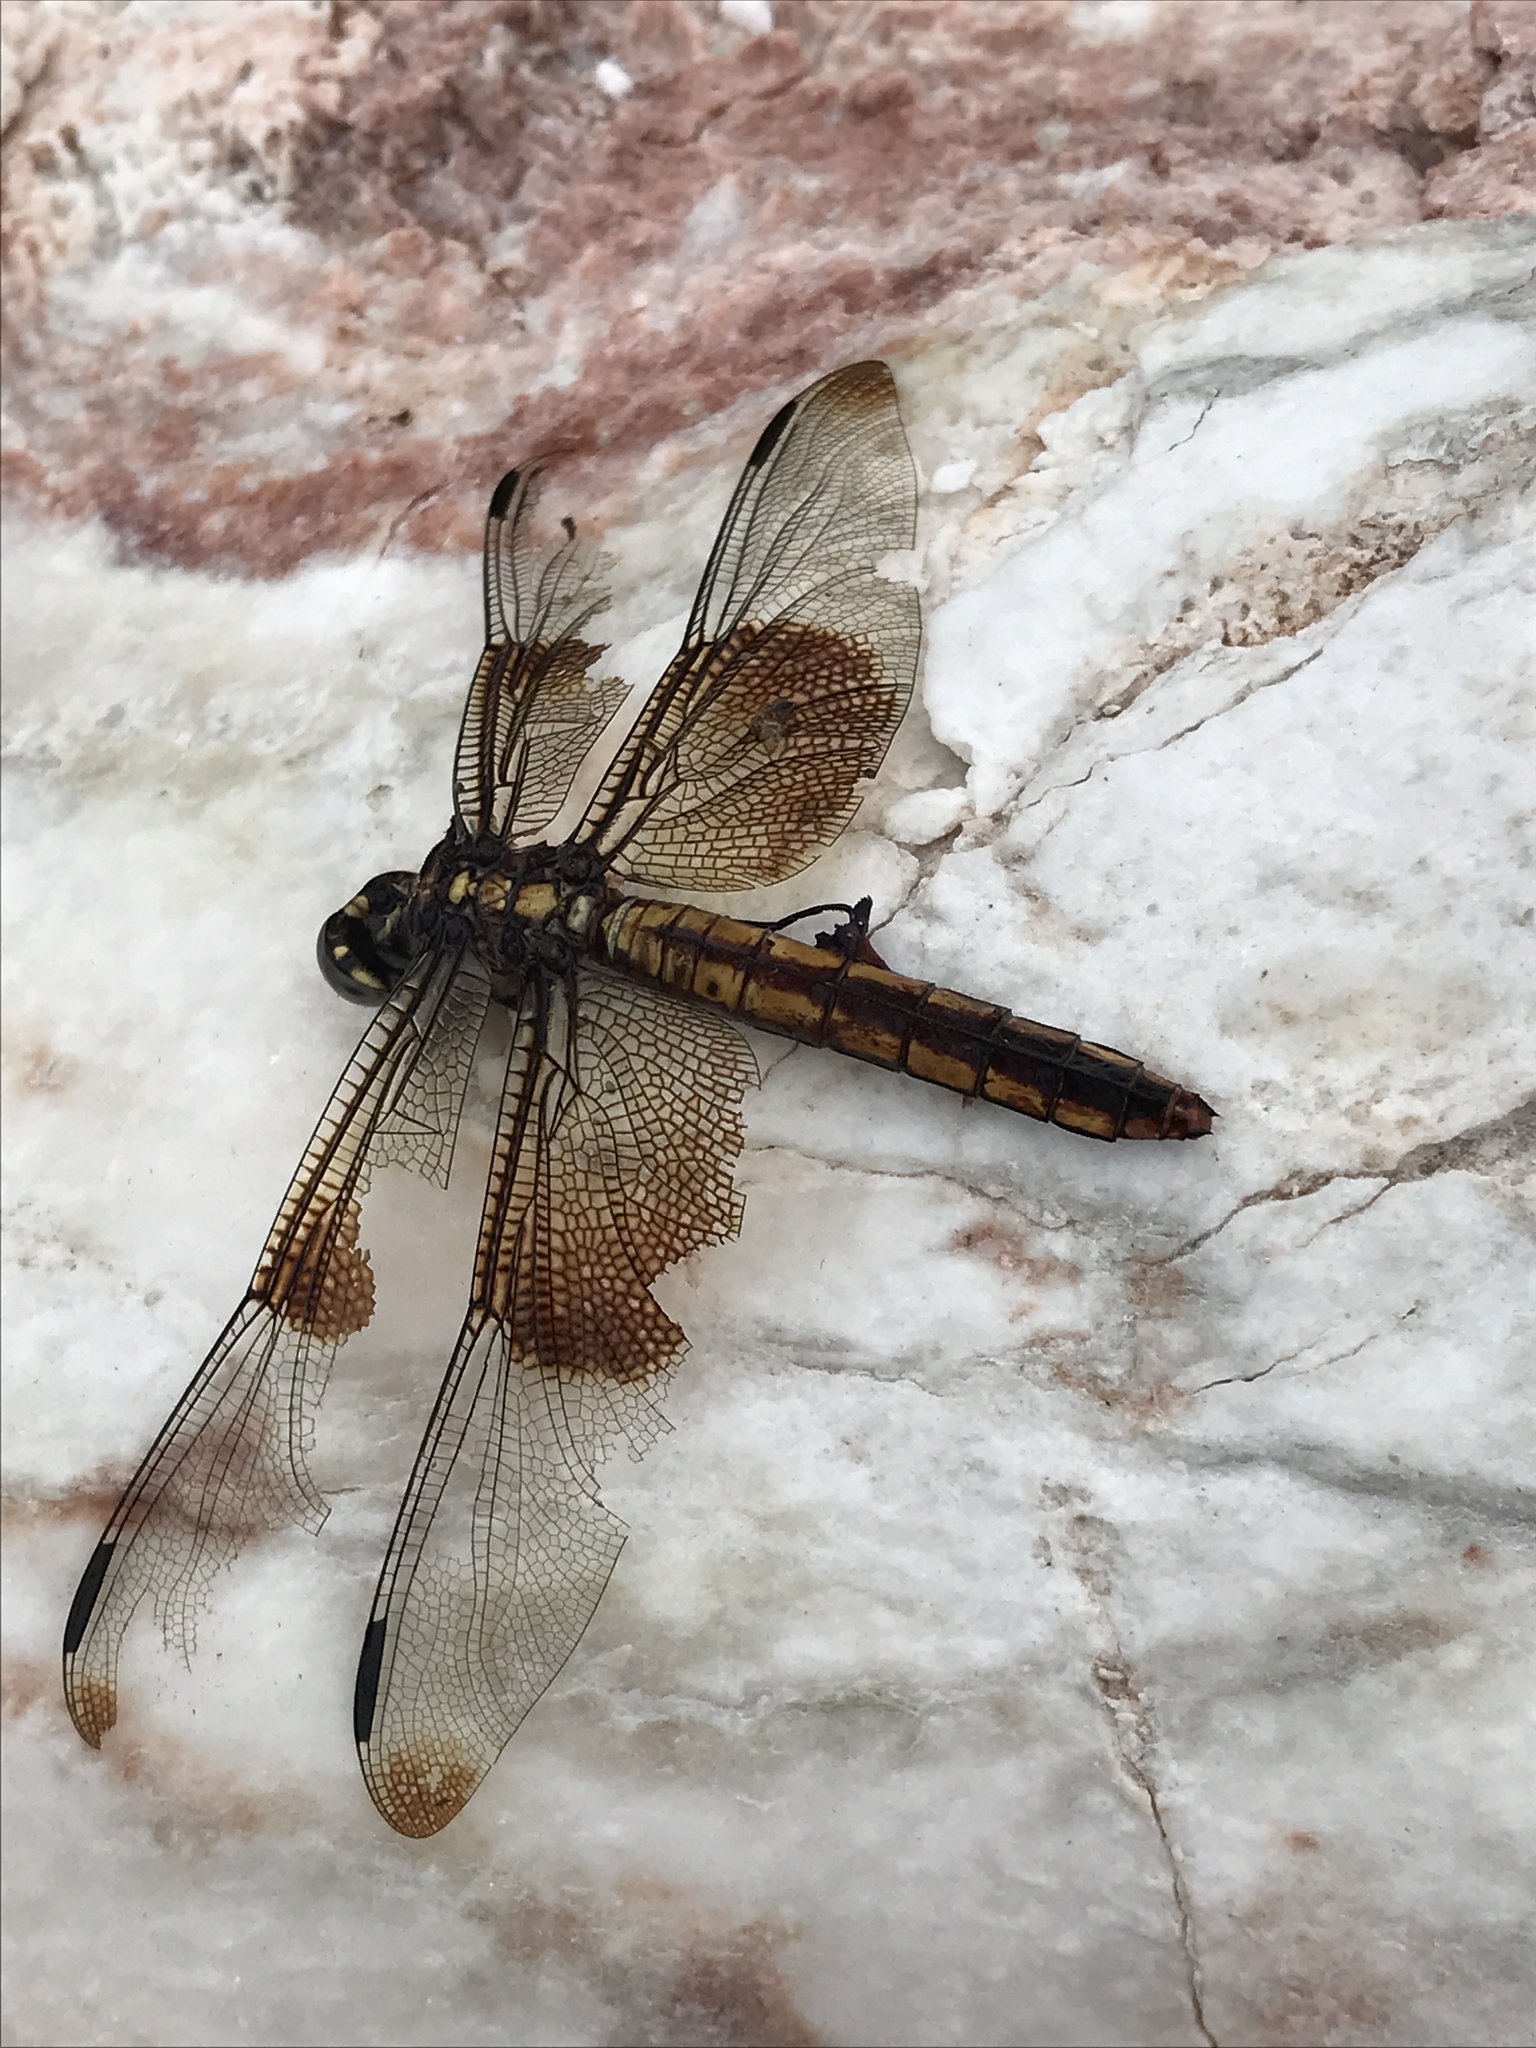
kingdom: Animalia
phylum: Arthropoda
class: Insecta
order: Odonata
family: Libellulidae
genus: Libellula
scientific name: Libellula luctuosa
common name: Widow skimmer
